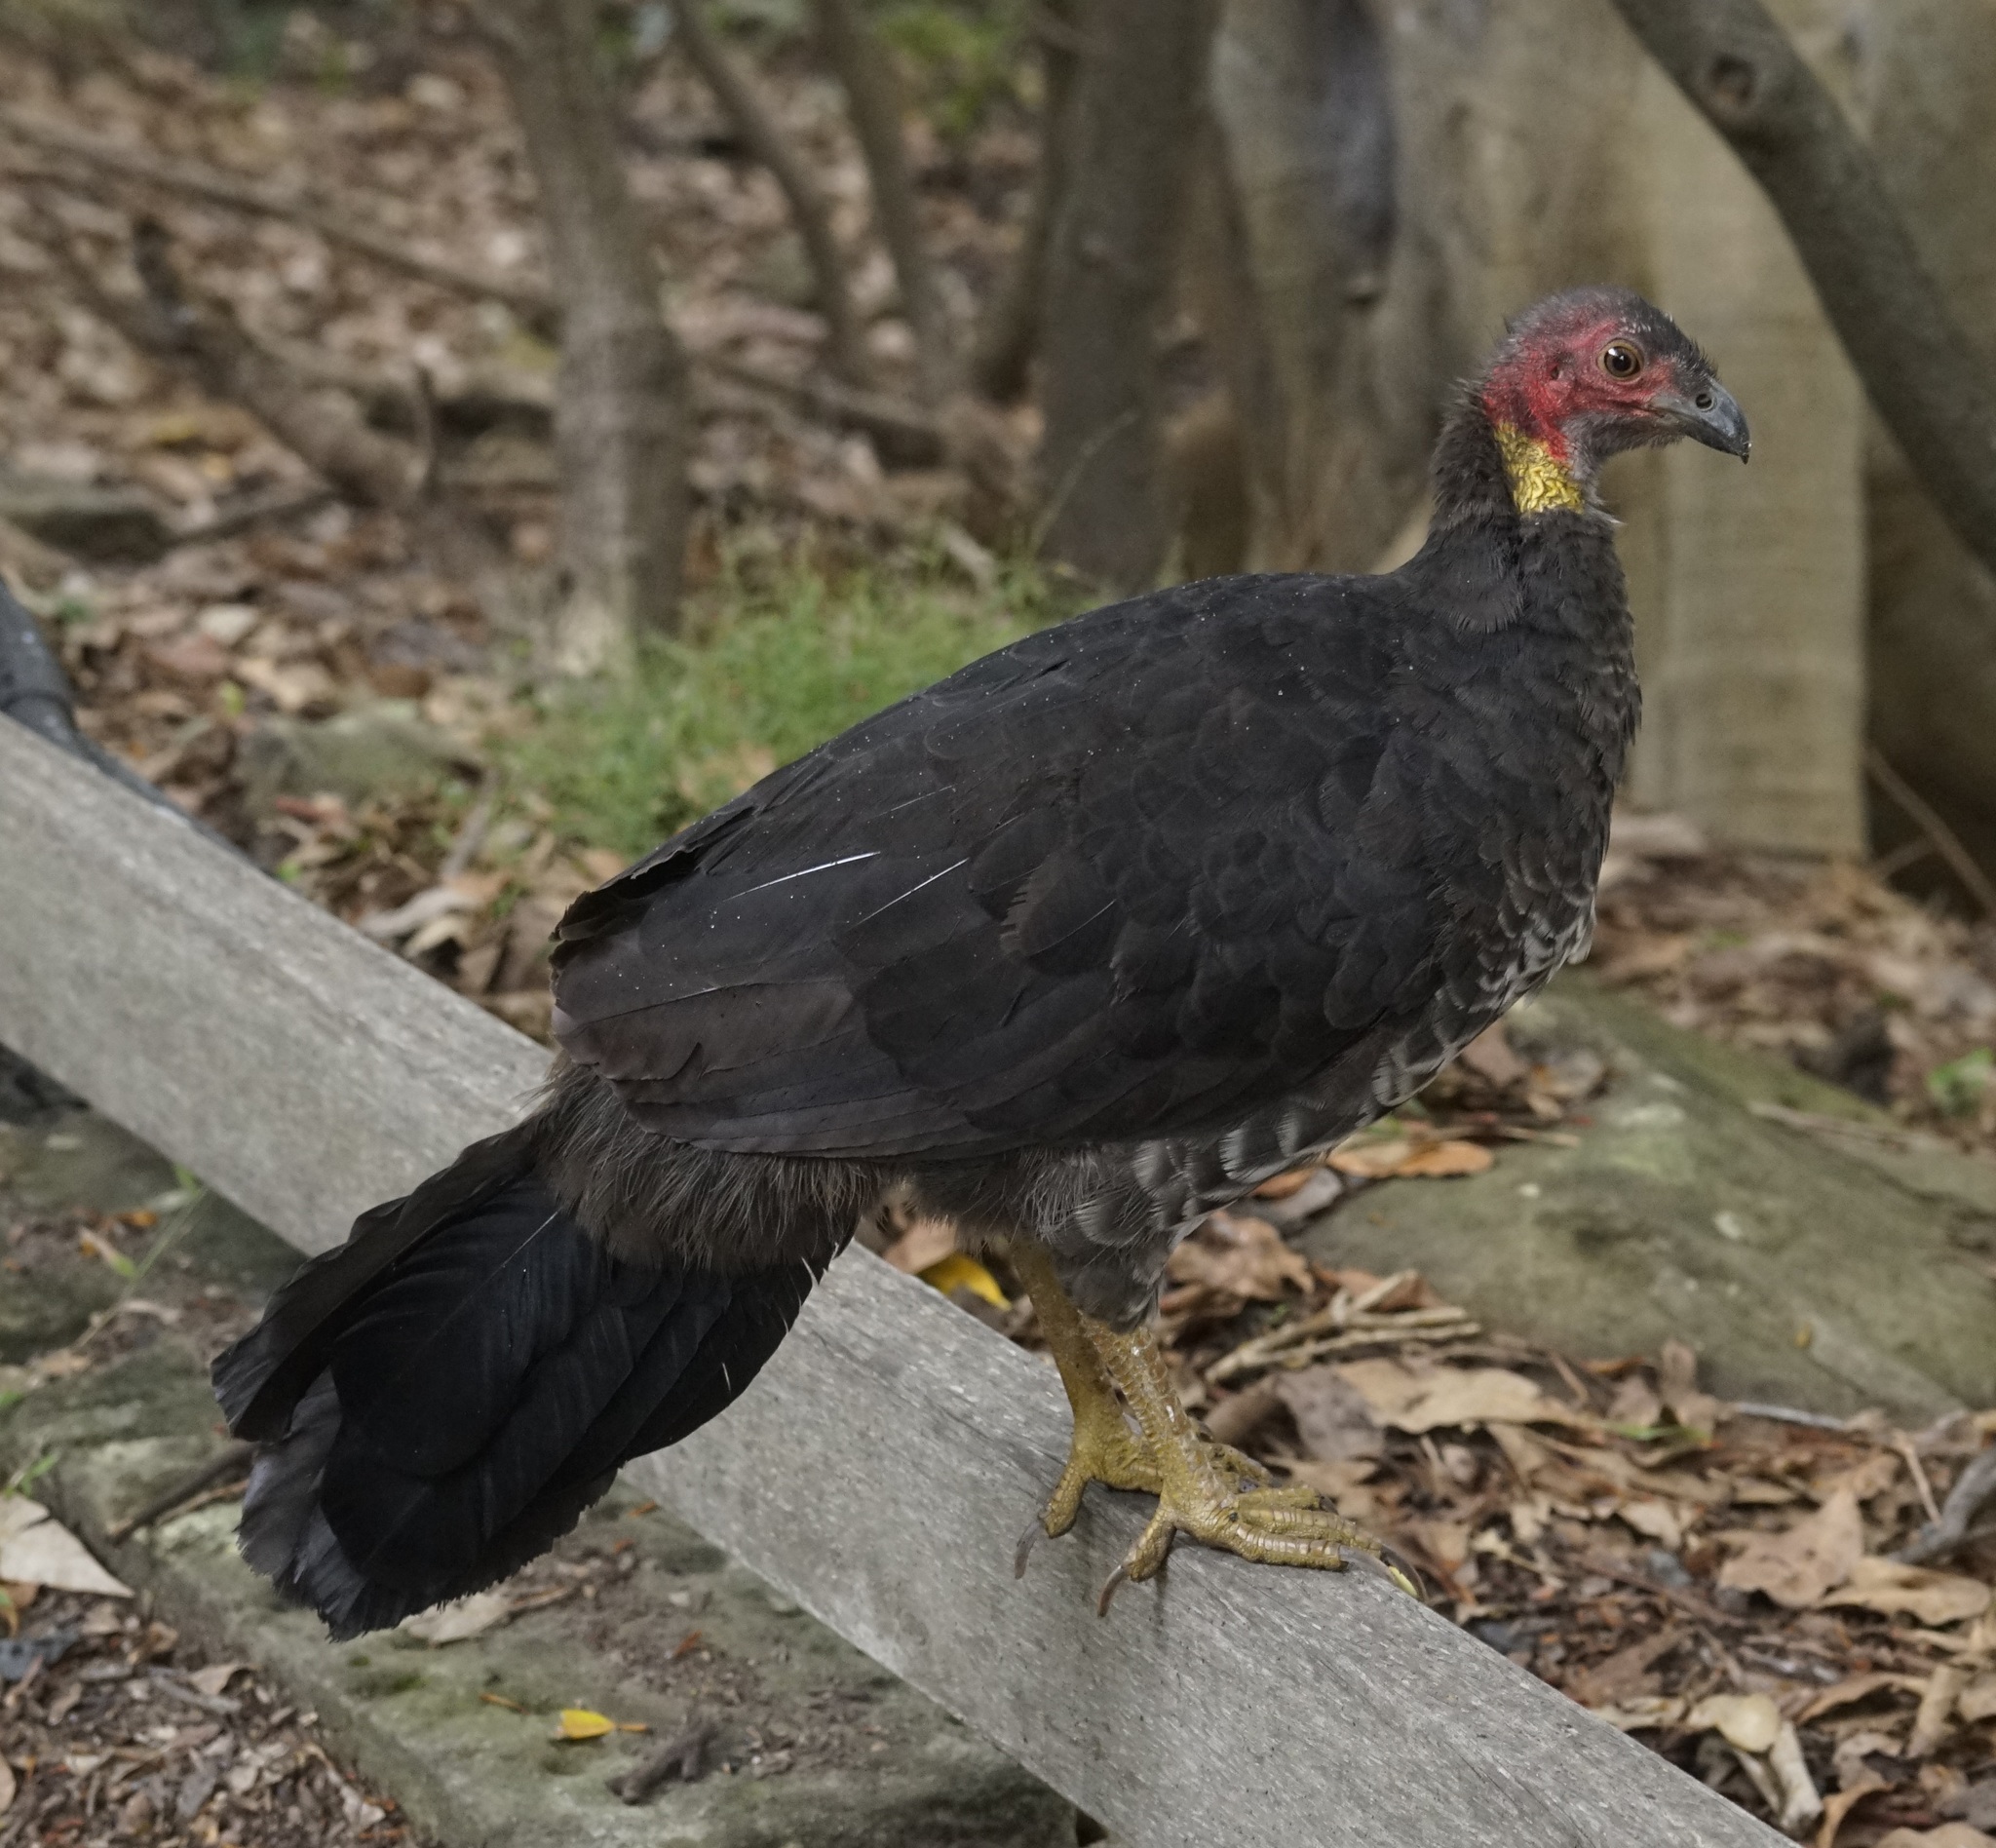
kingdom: Animalia
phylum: Chordata
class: Aves
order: Galliformes
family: Megapodiidae
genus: Alectura
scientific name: Alectura lathami
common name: Australian brushturkey
